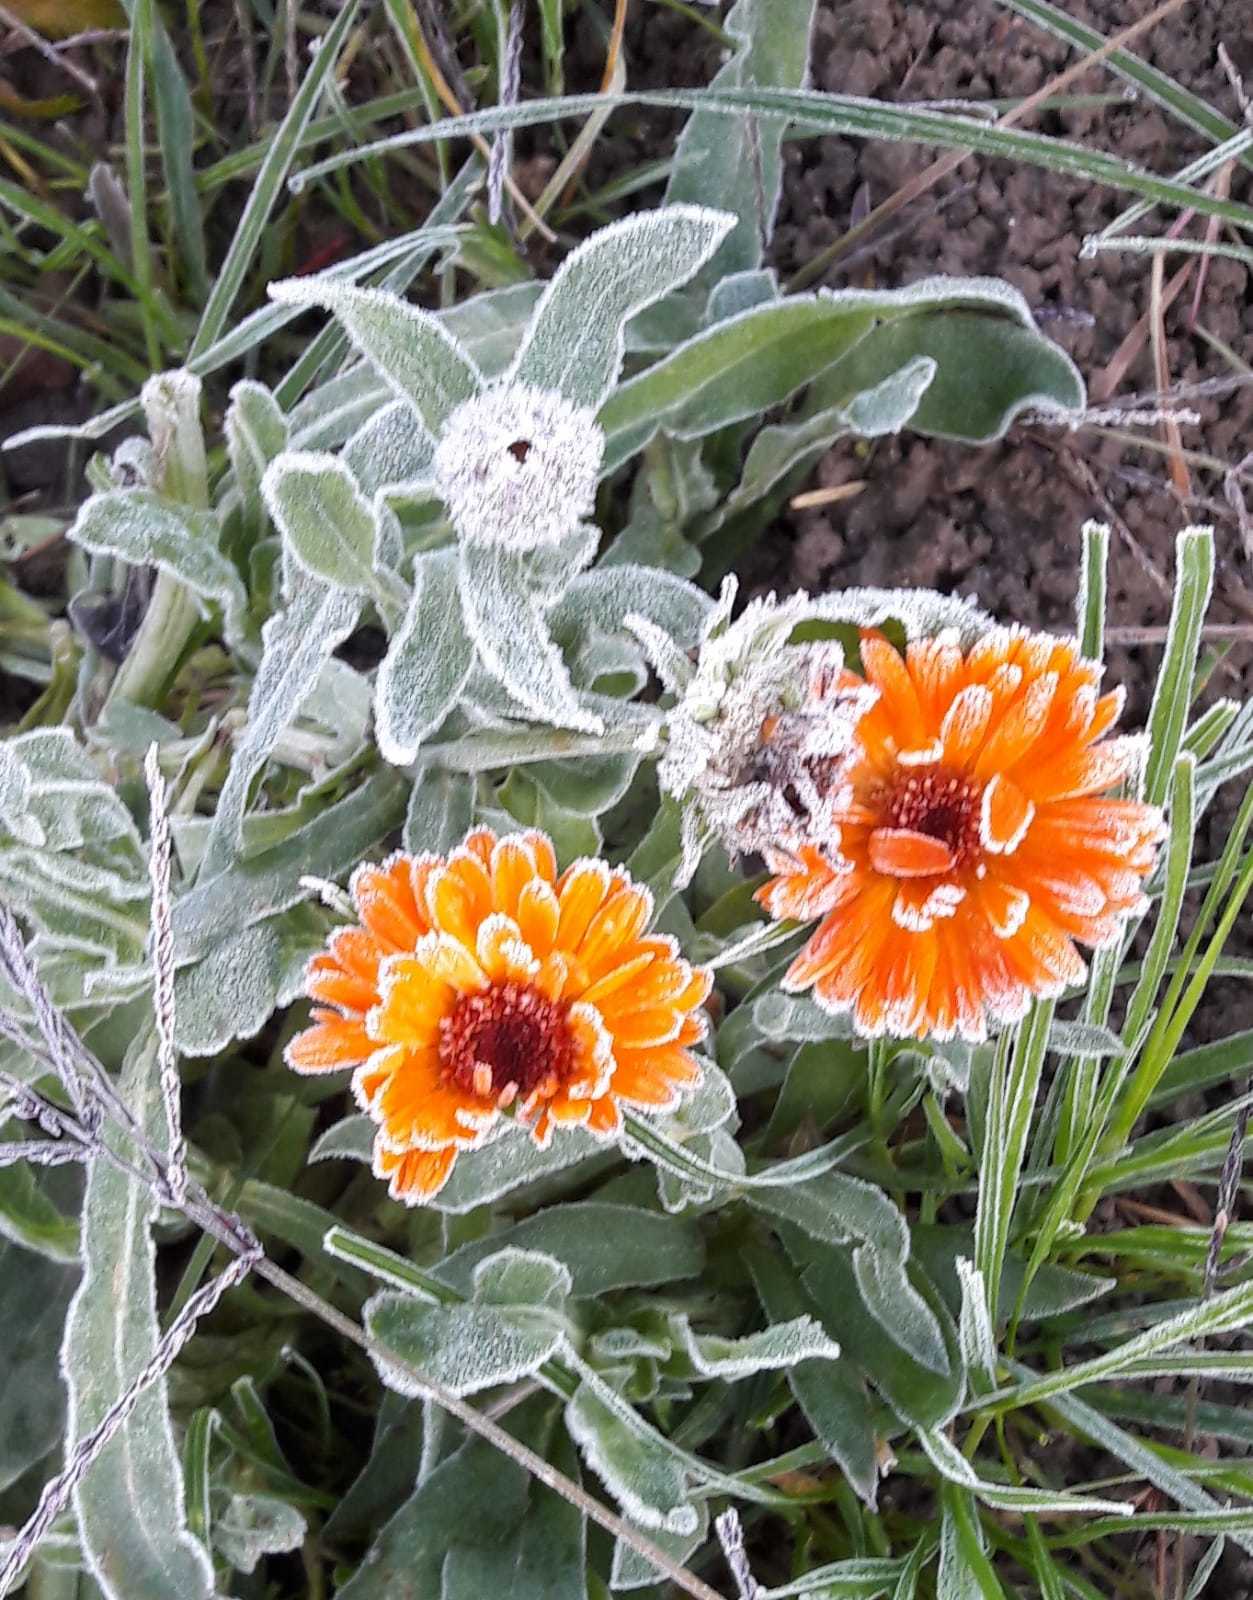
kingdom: Plantae
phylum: Tracheophyta
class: Magnoliopsida
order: Asterales
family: Asteraceae
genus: Calendula
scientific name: Calendula officinalis
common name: Pot marigold
